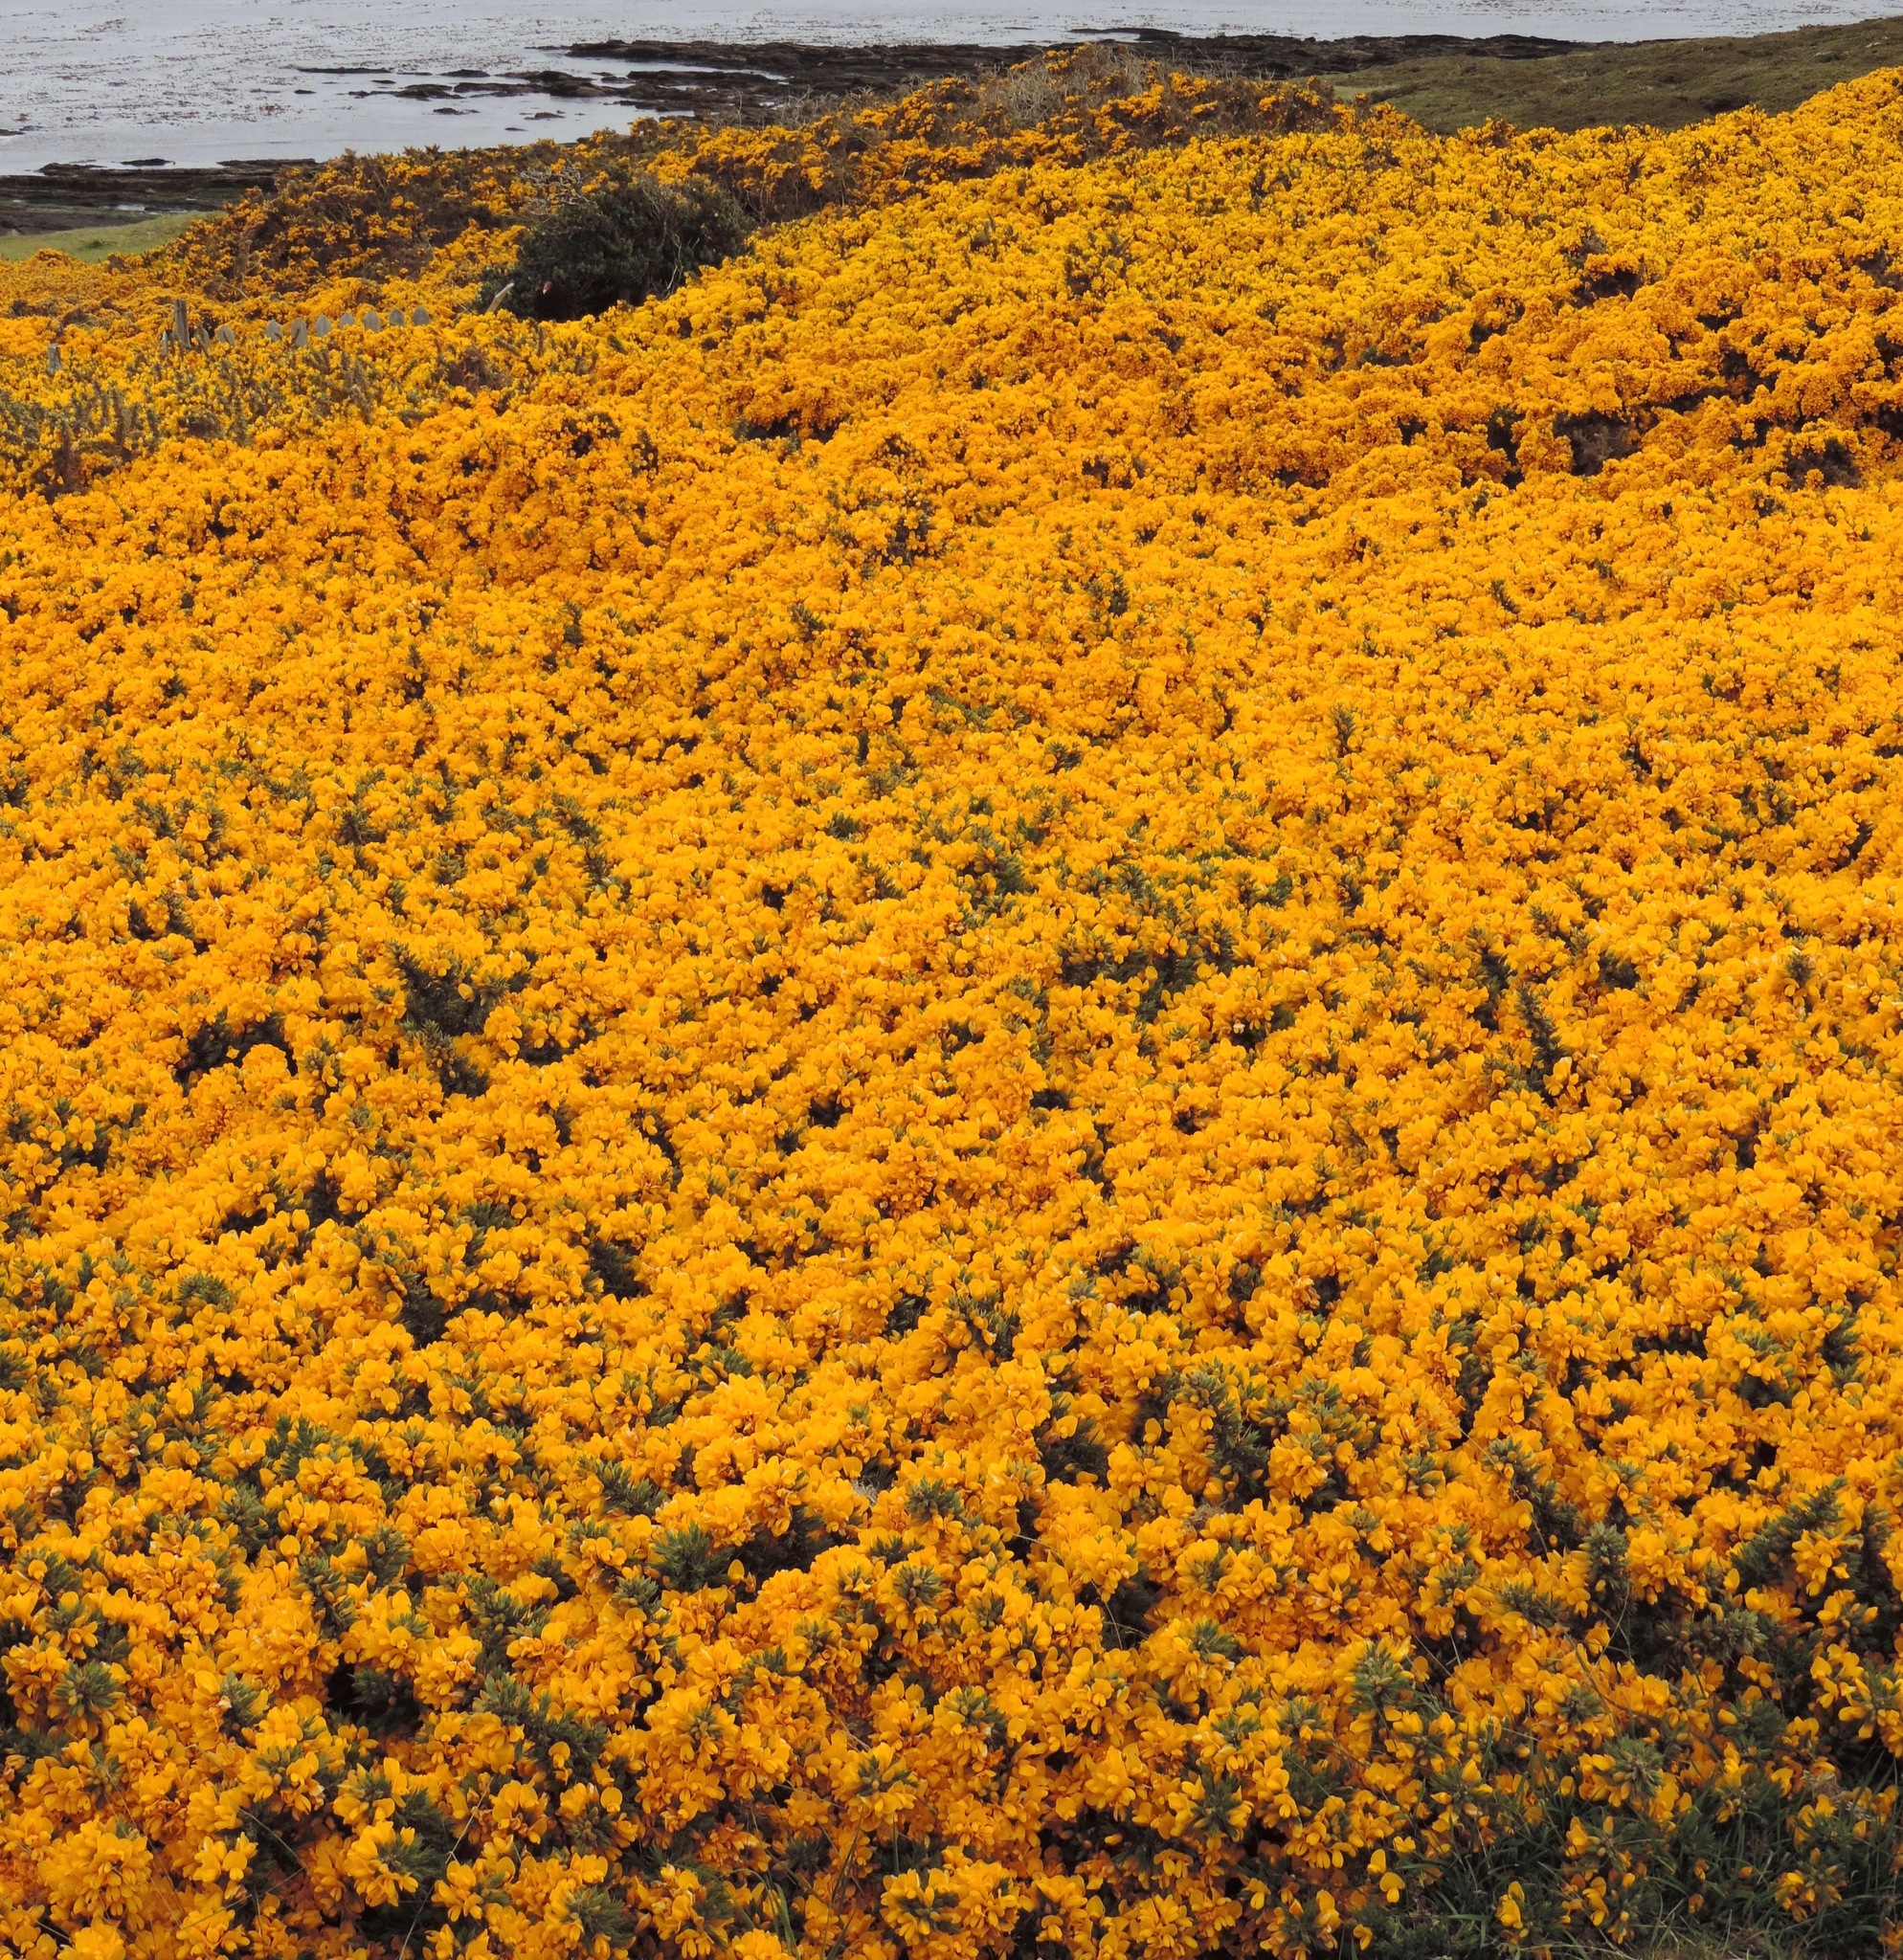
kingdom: Plantae
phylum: Tracheophyta
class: Magnoliopsida
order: Fabales
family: Fabaceae
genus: Ulex
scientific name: Ulex europaeus
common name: Common gorse
